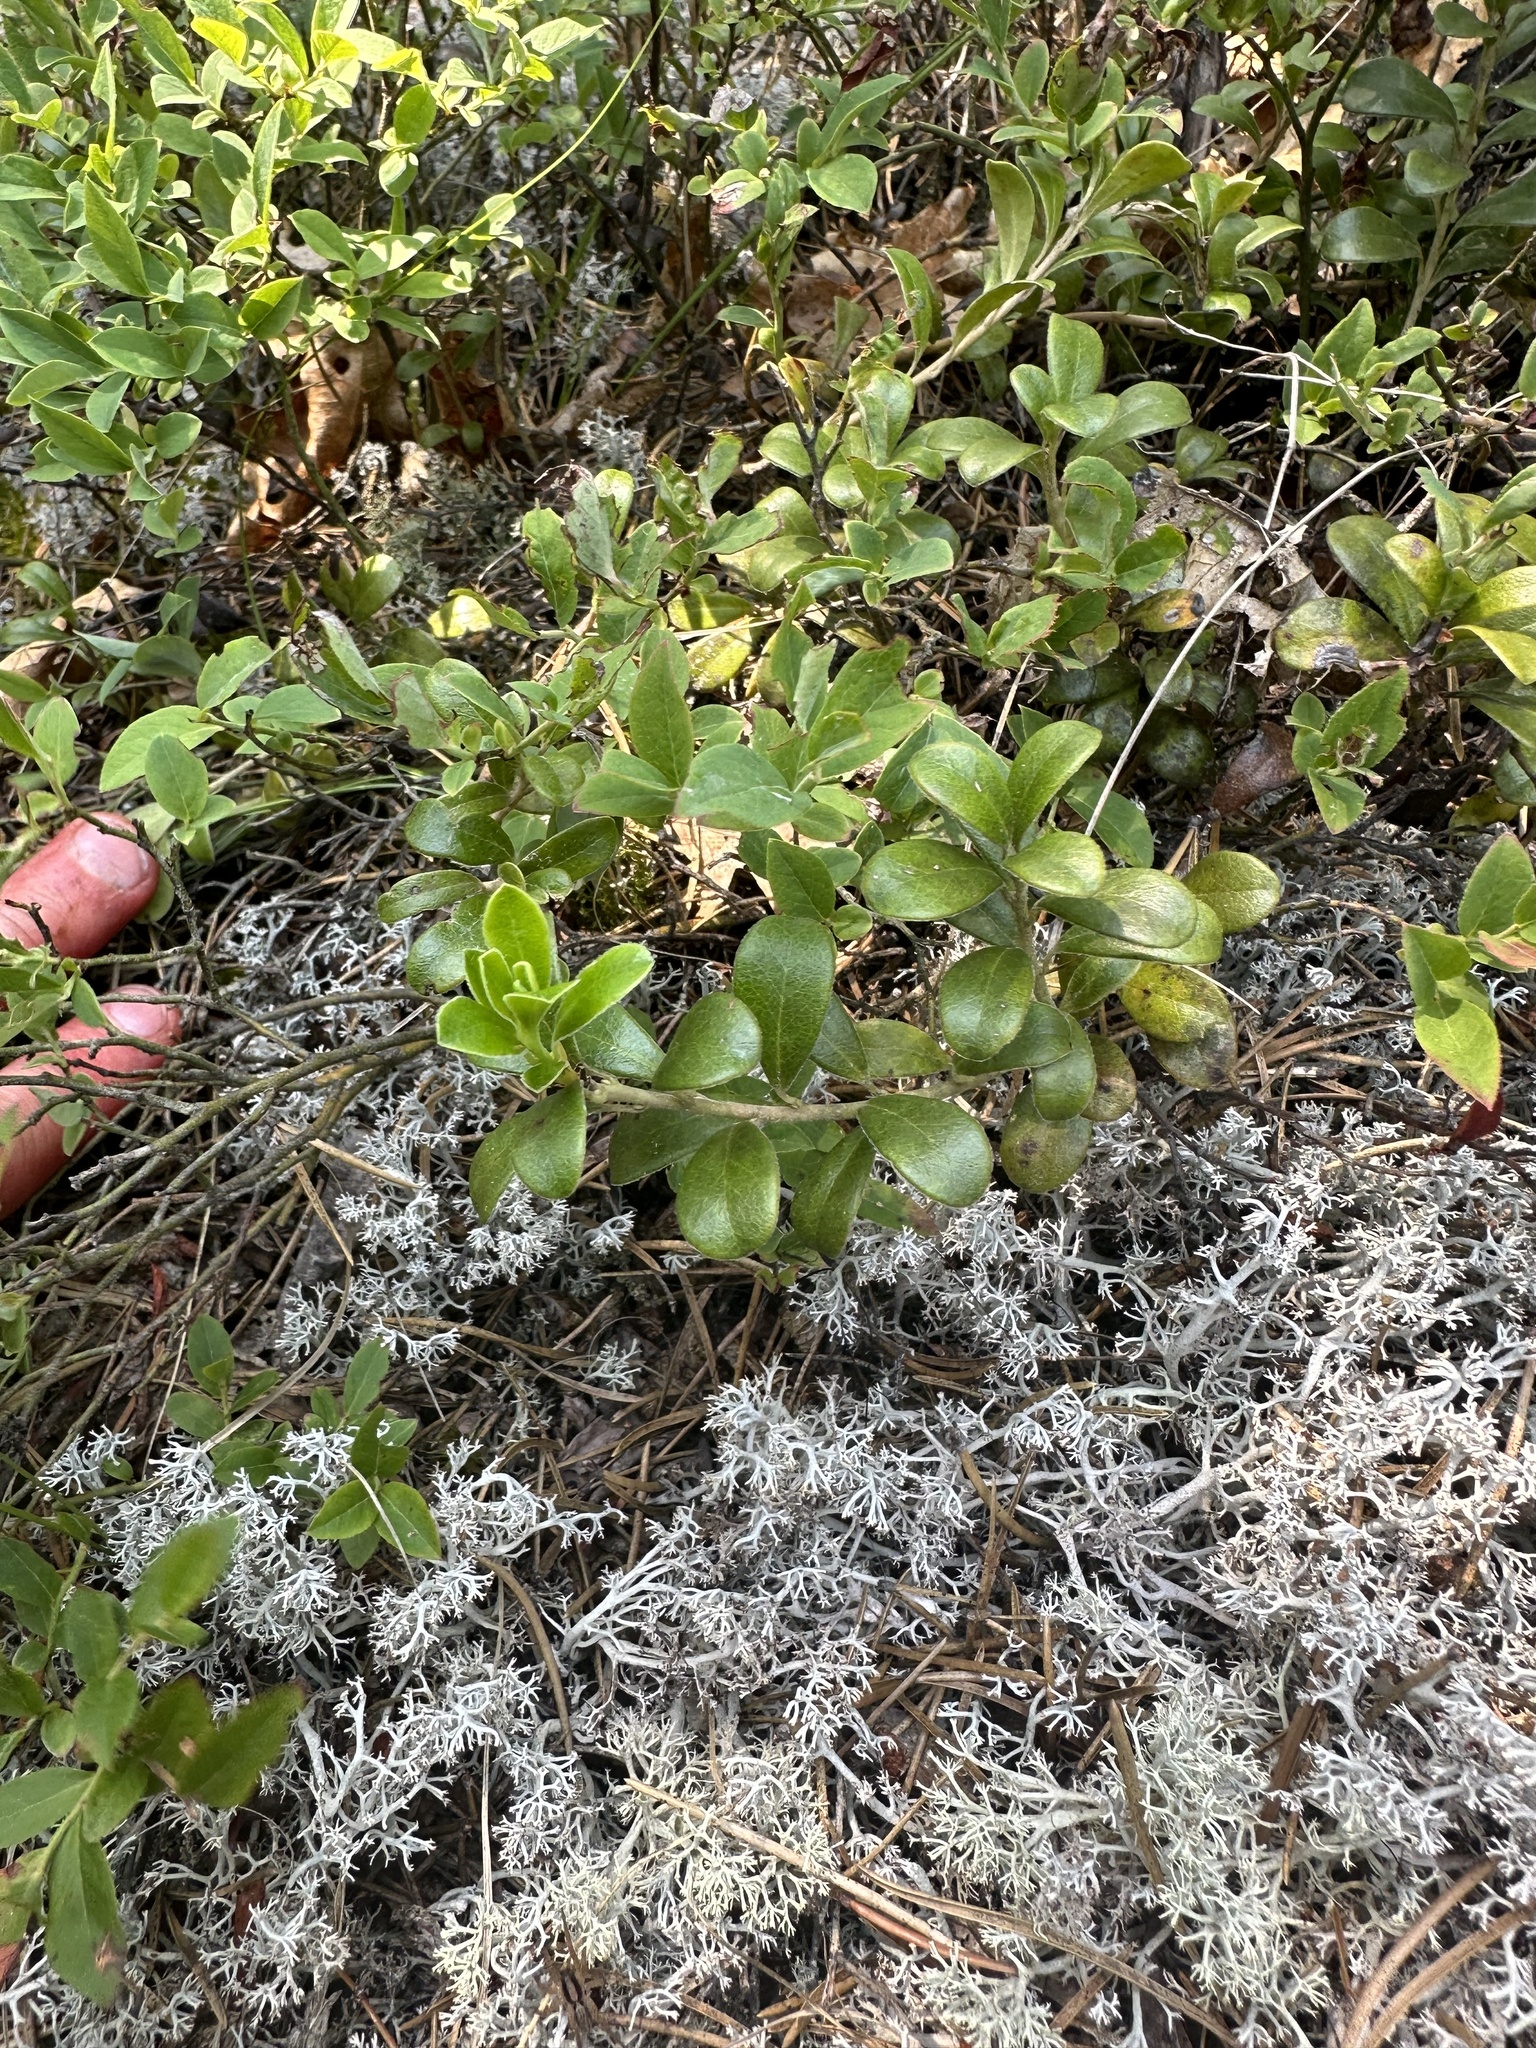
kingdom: Plantae
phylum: Tracheophyta
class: Magnoliopsida
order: Ericales
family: Ericaceae
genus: Arctostaphylos
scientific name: Arctostaphylos uva-ursi
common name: Bearberry
